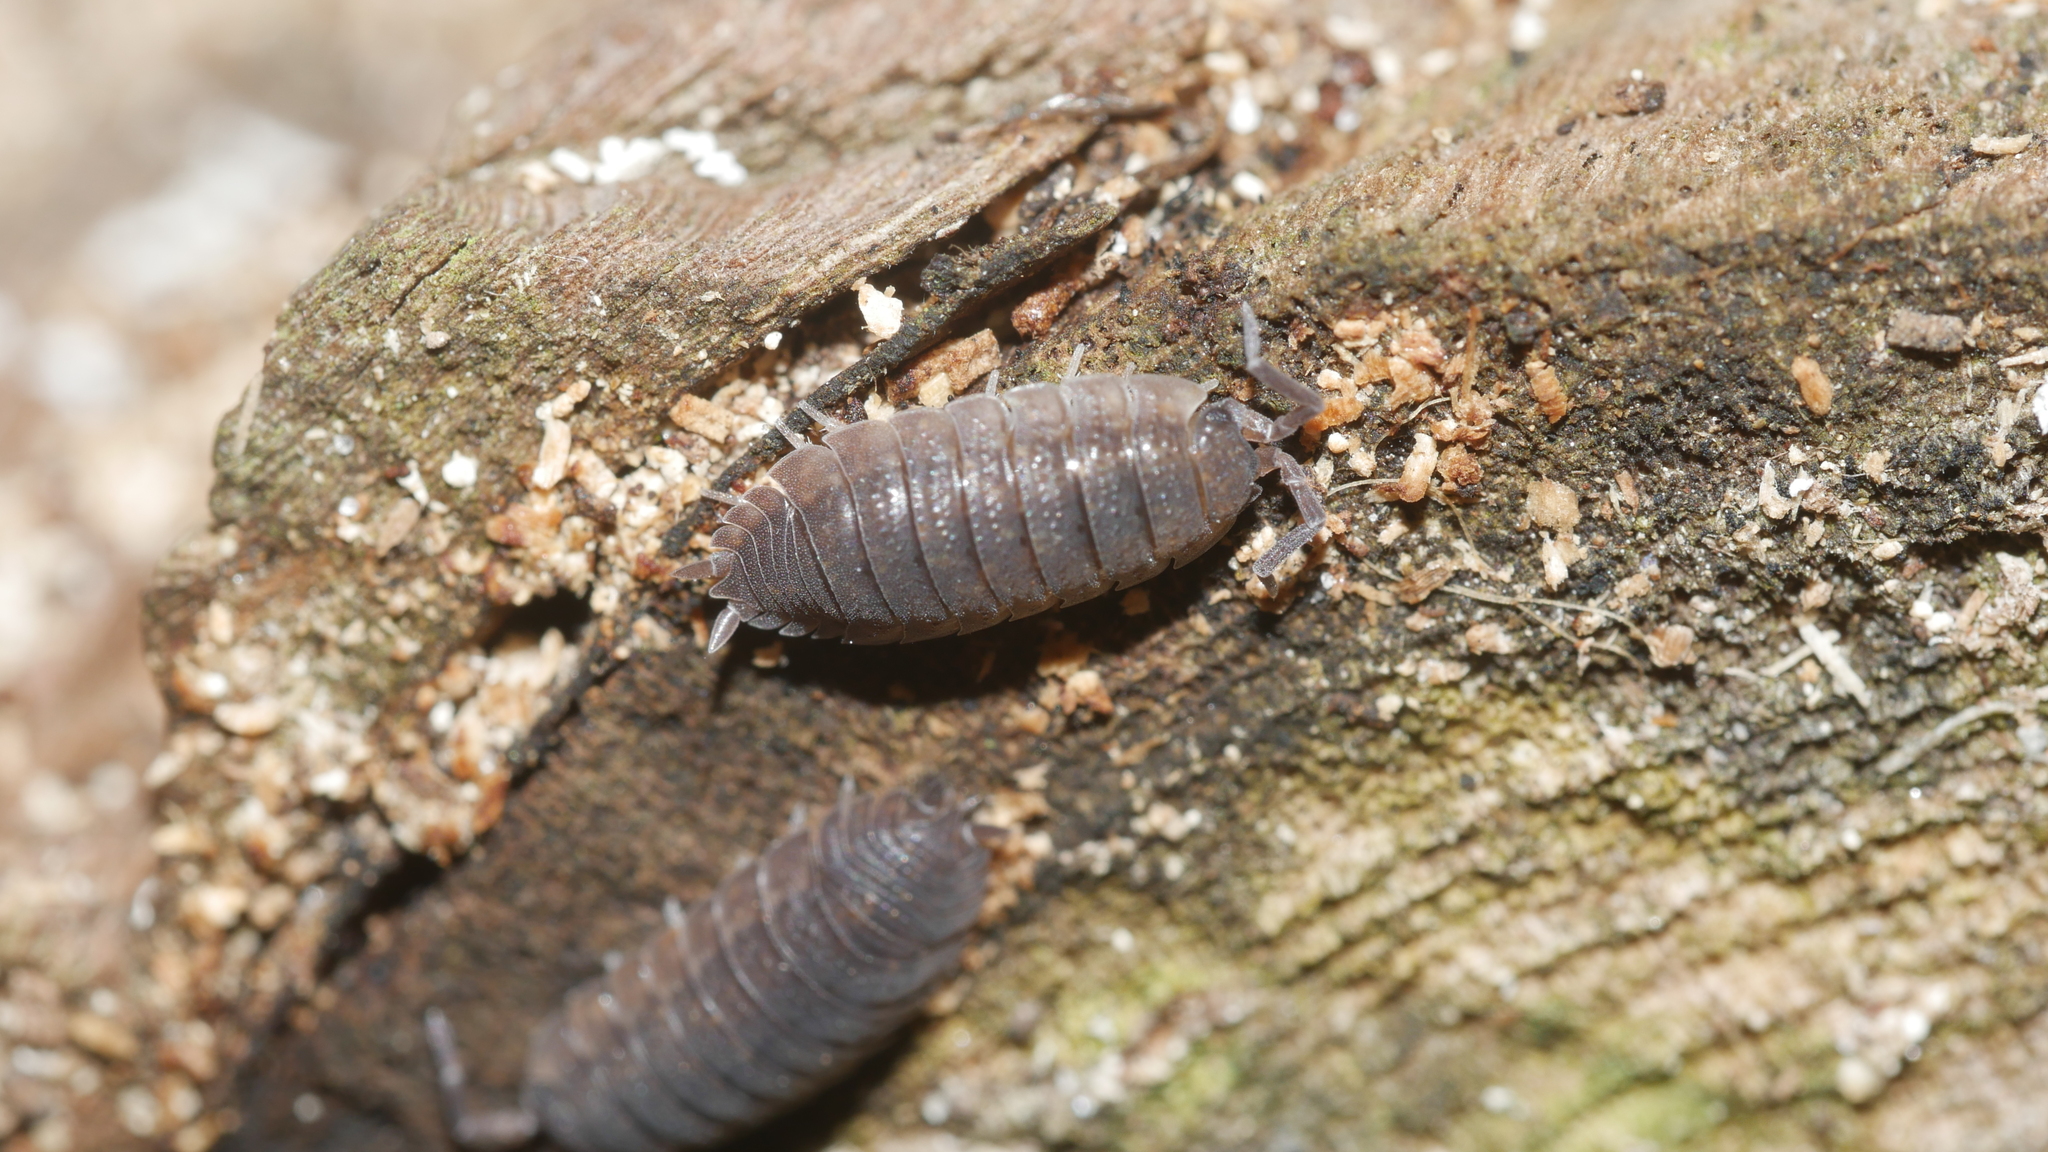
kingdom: Animalia
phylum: Arthropoda
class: Malacostraca
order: Isopoda
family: Porcellionidae
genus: Porcellio
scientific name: Porcellio scaber
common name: Common rough woodlouse
